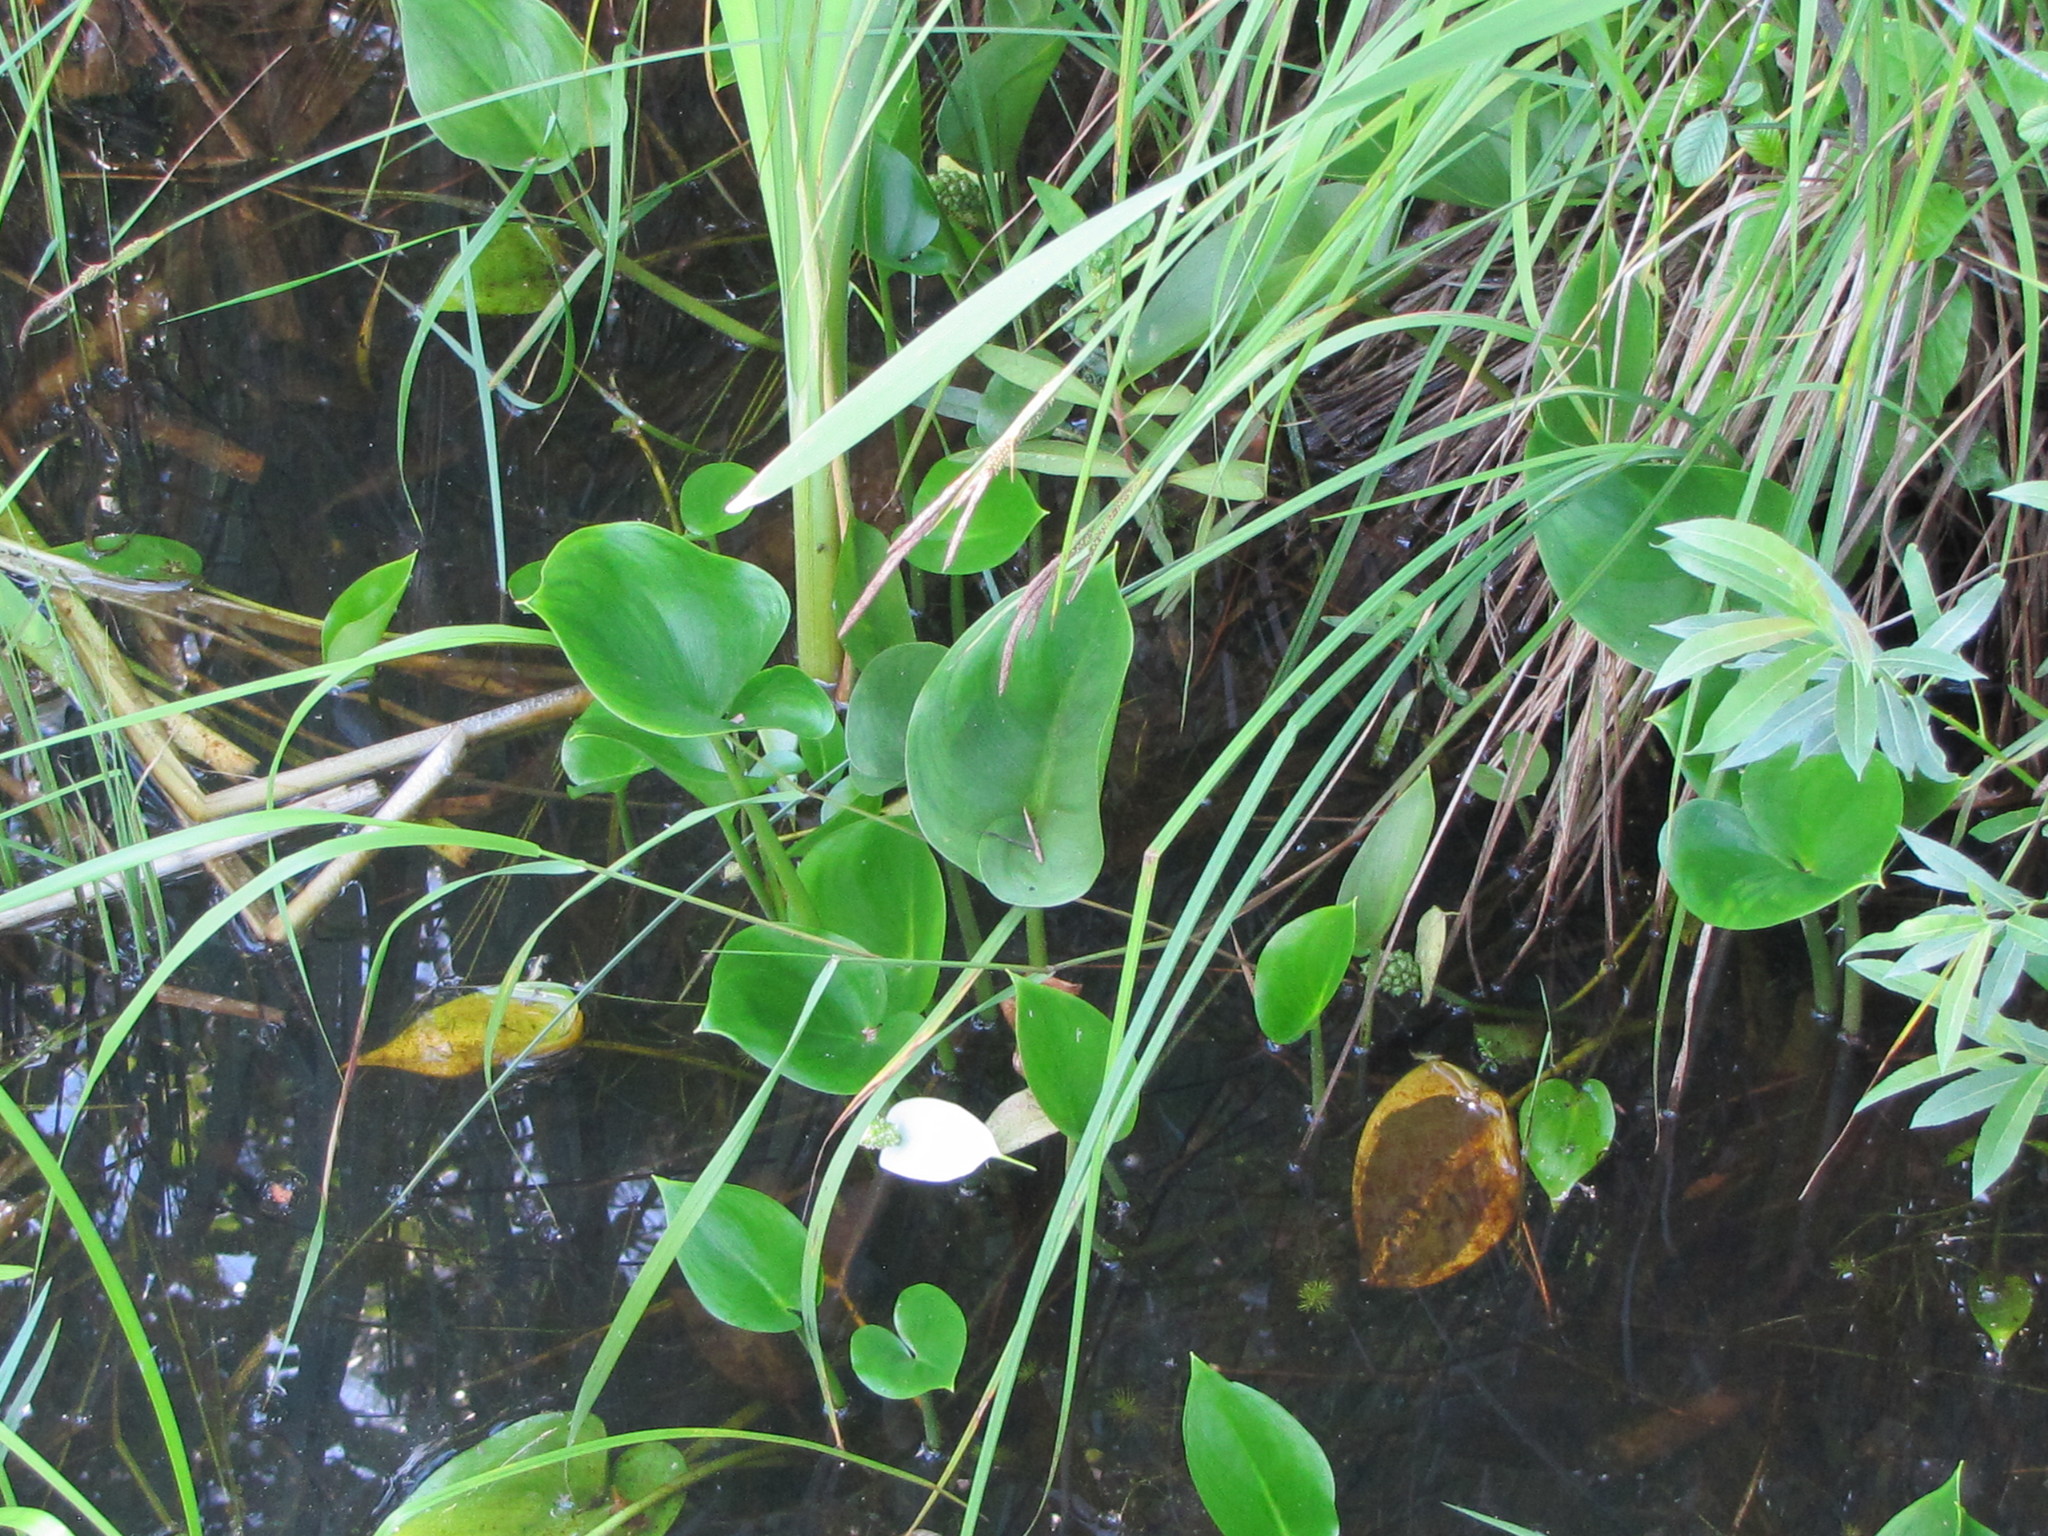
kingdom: Plantae
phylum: Tracheophyta
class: Liliopsida
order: Alismatales
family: Araceae
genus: Calla
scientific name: Calla palustris
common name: Bog arum
